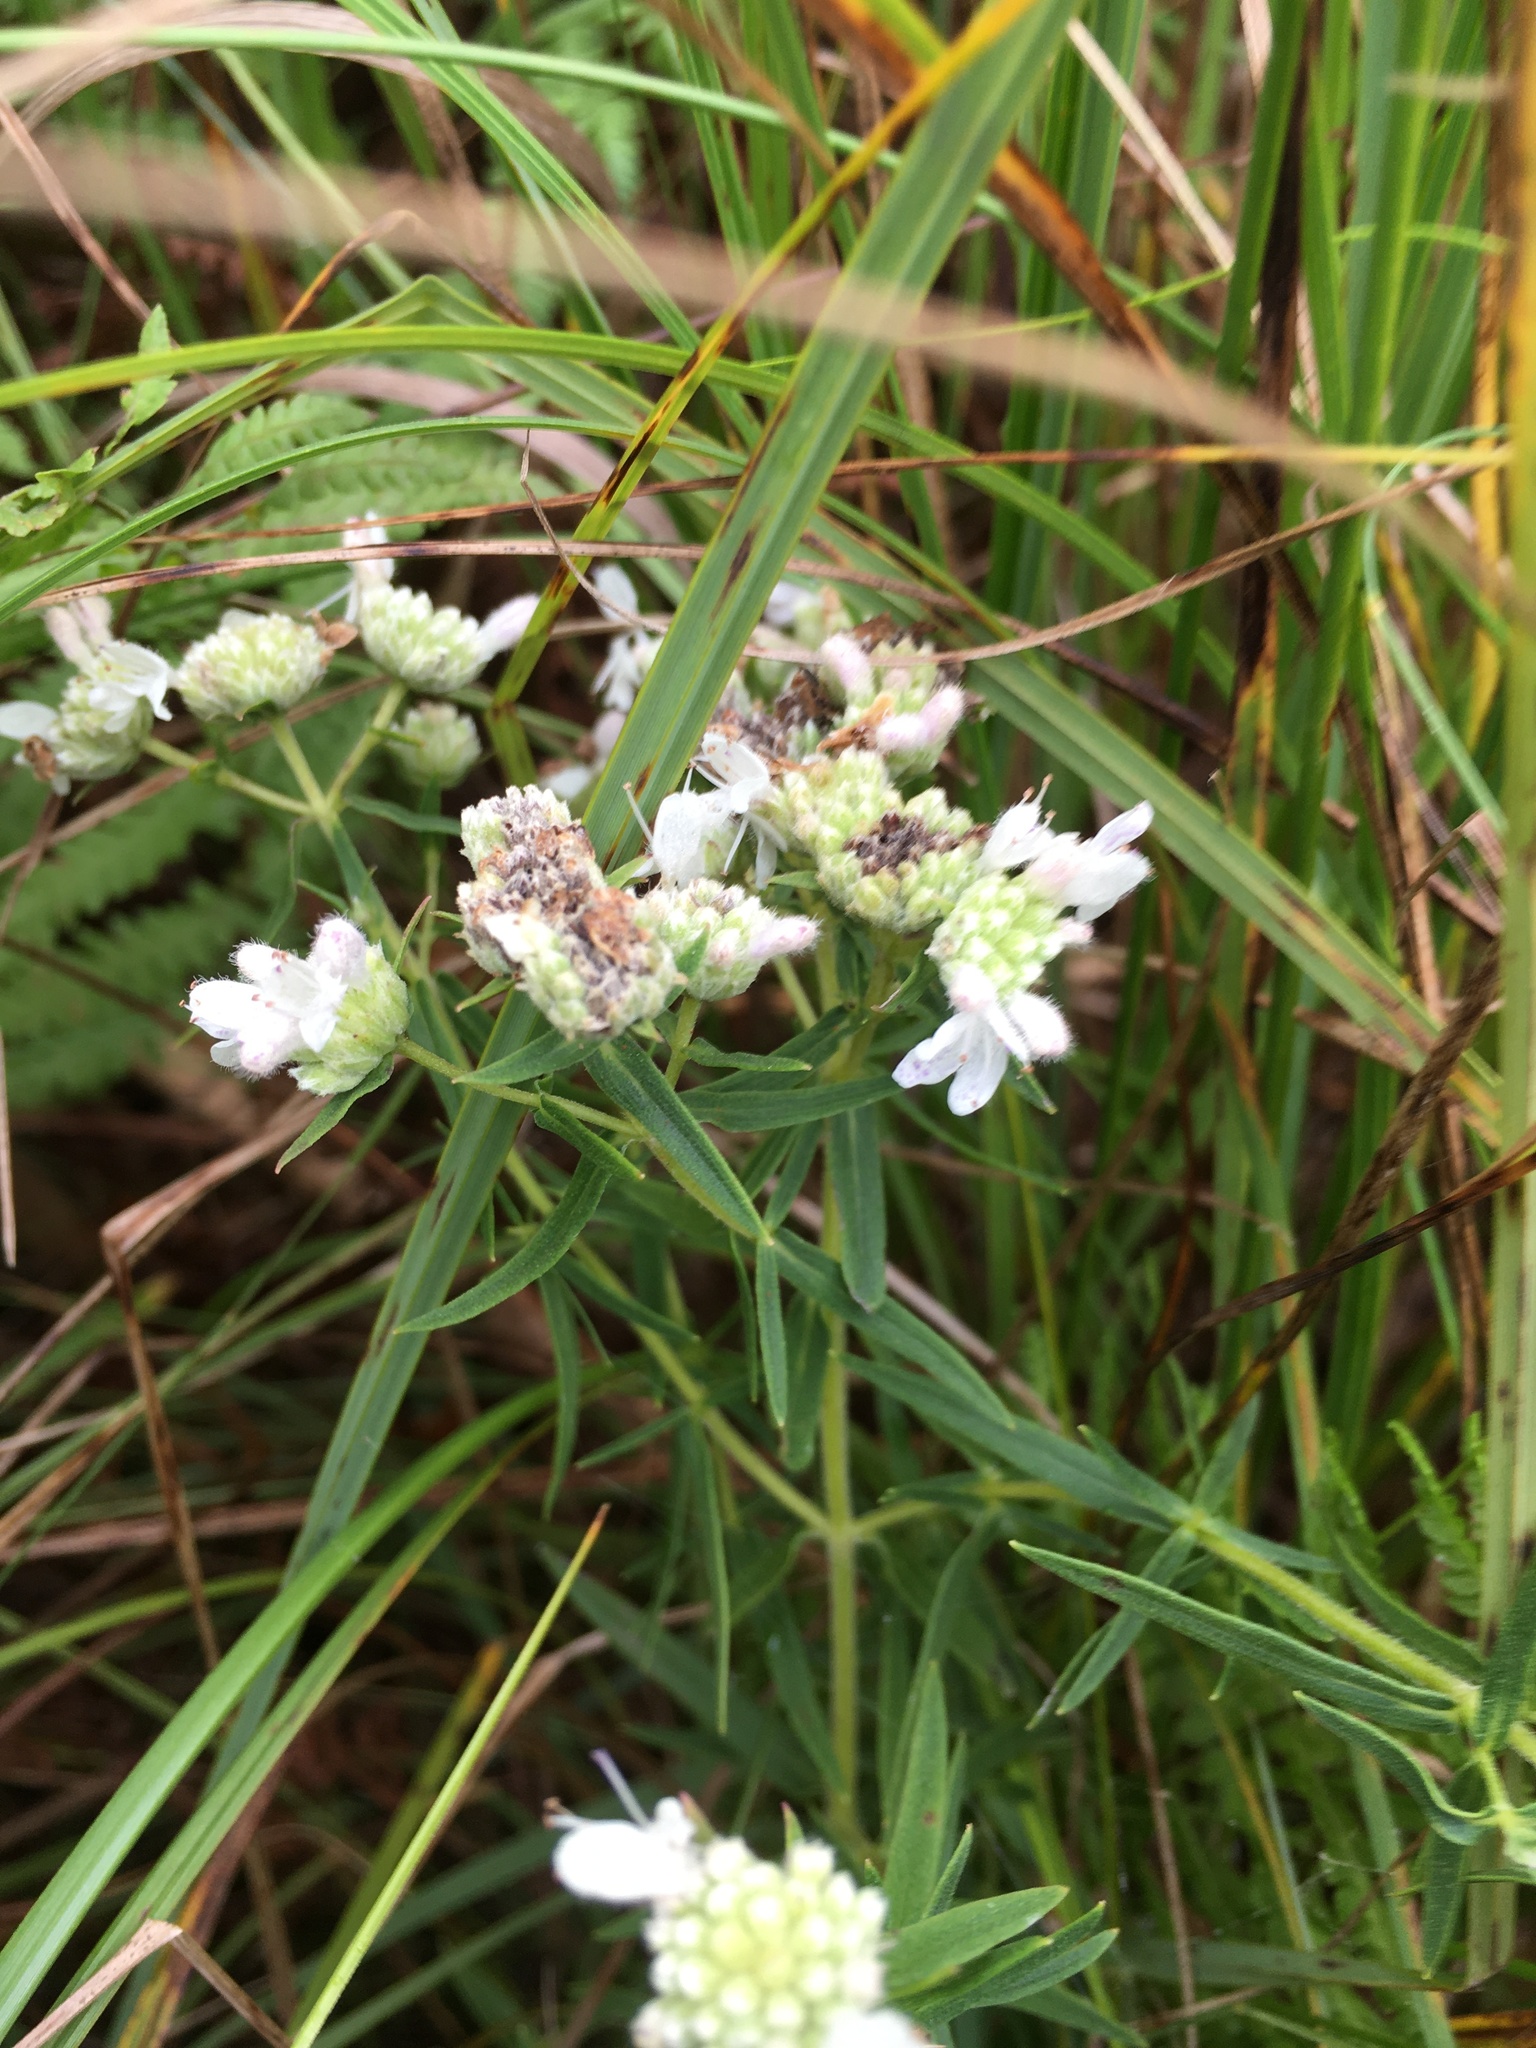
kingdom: Plantae
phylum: Tracheophyta
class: Magnoliopsida
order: Lamiales
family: Lamiaceae
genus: Pycnanthemum
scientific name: Pycnanthemum virginianum
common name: Virginia mountain-mint
